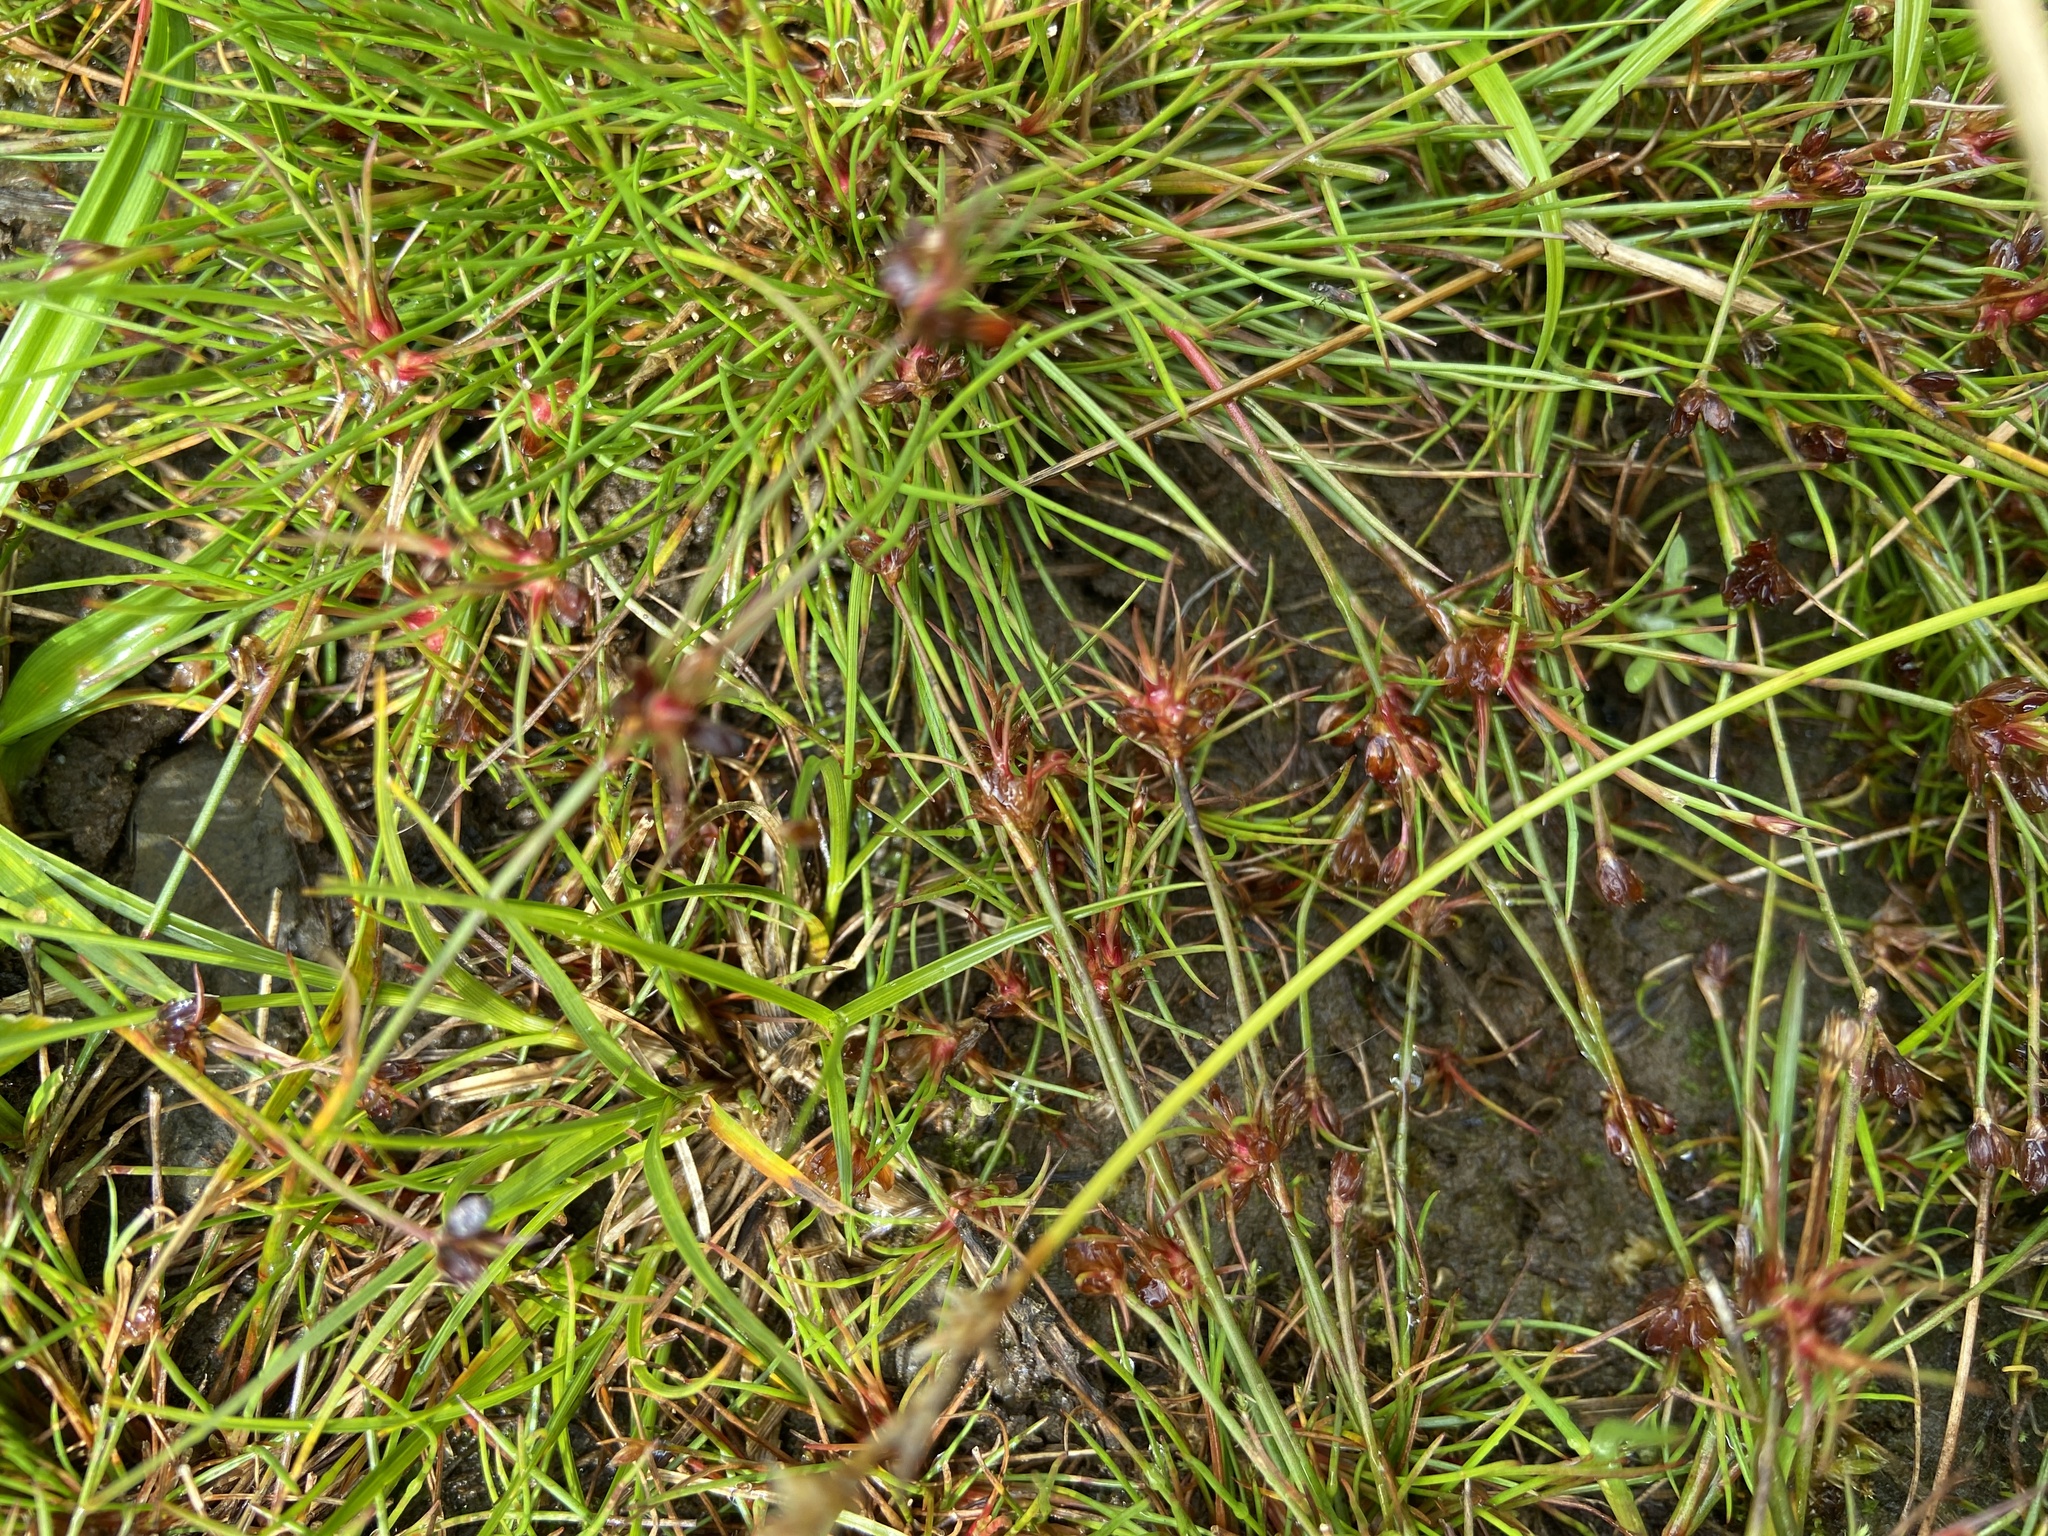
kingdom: Plantae
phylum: Tracheophyta
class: Liliopsida
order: Poales
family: Juncaceae
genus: Juncus
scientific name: Juncus bulbosus
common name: Bulbous rush
